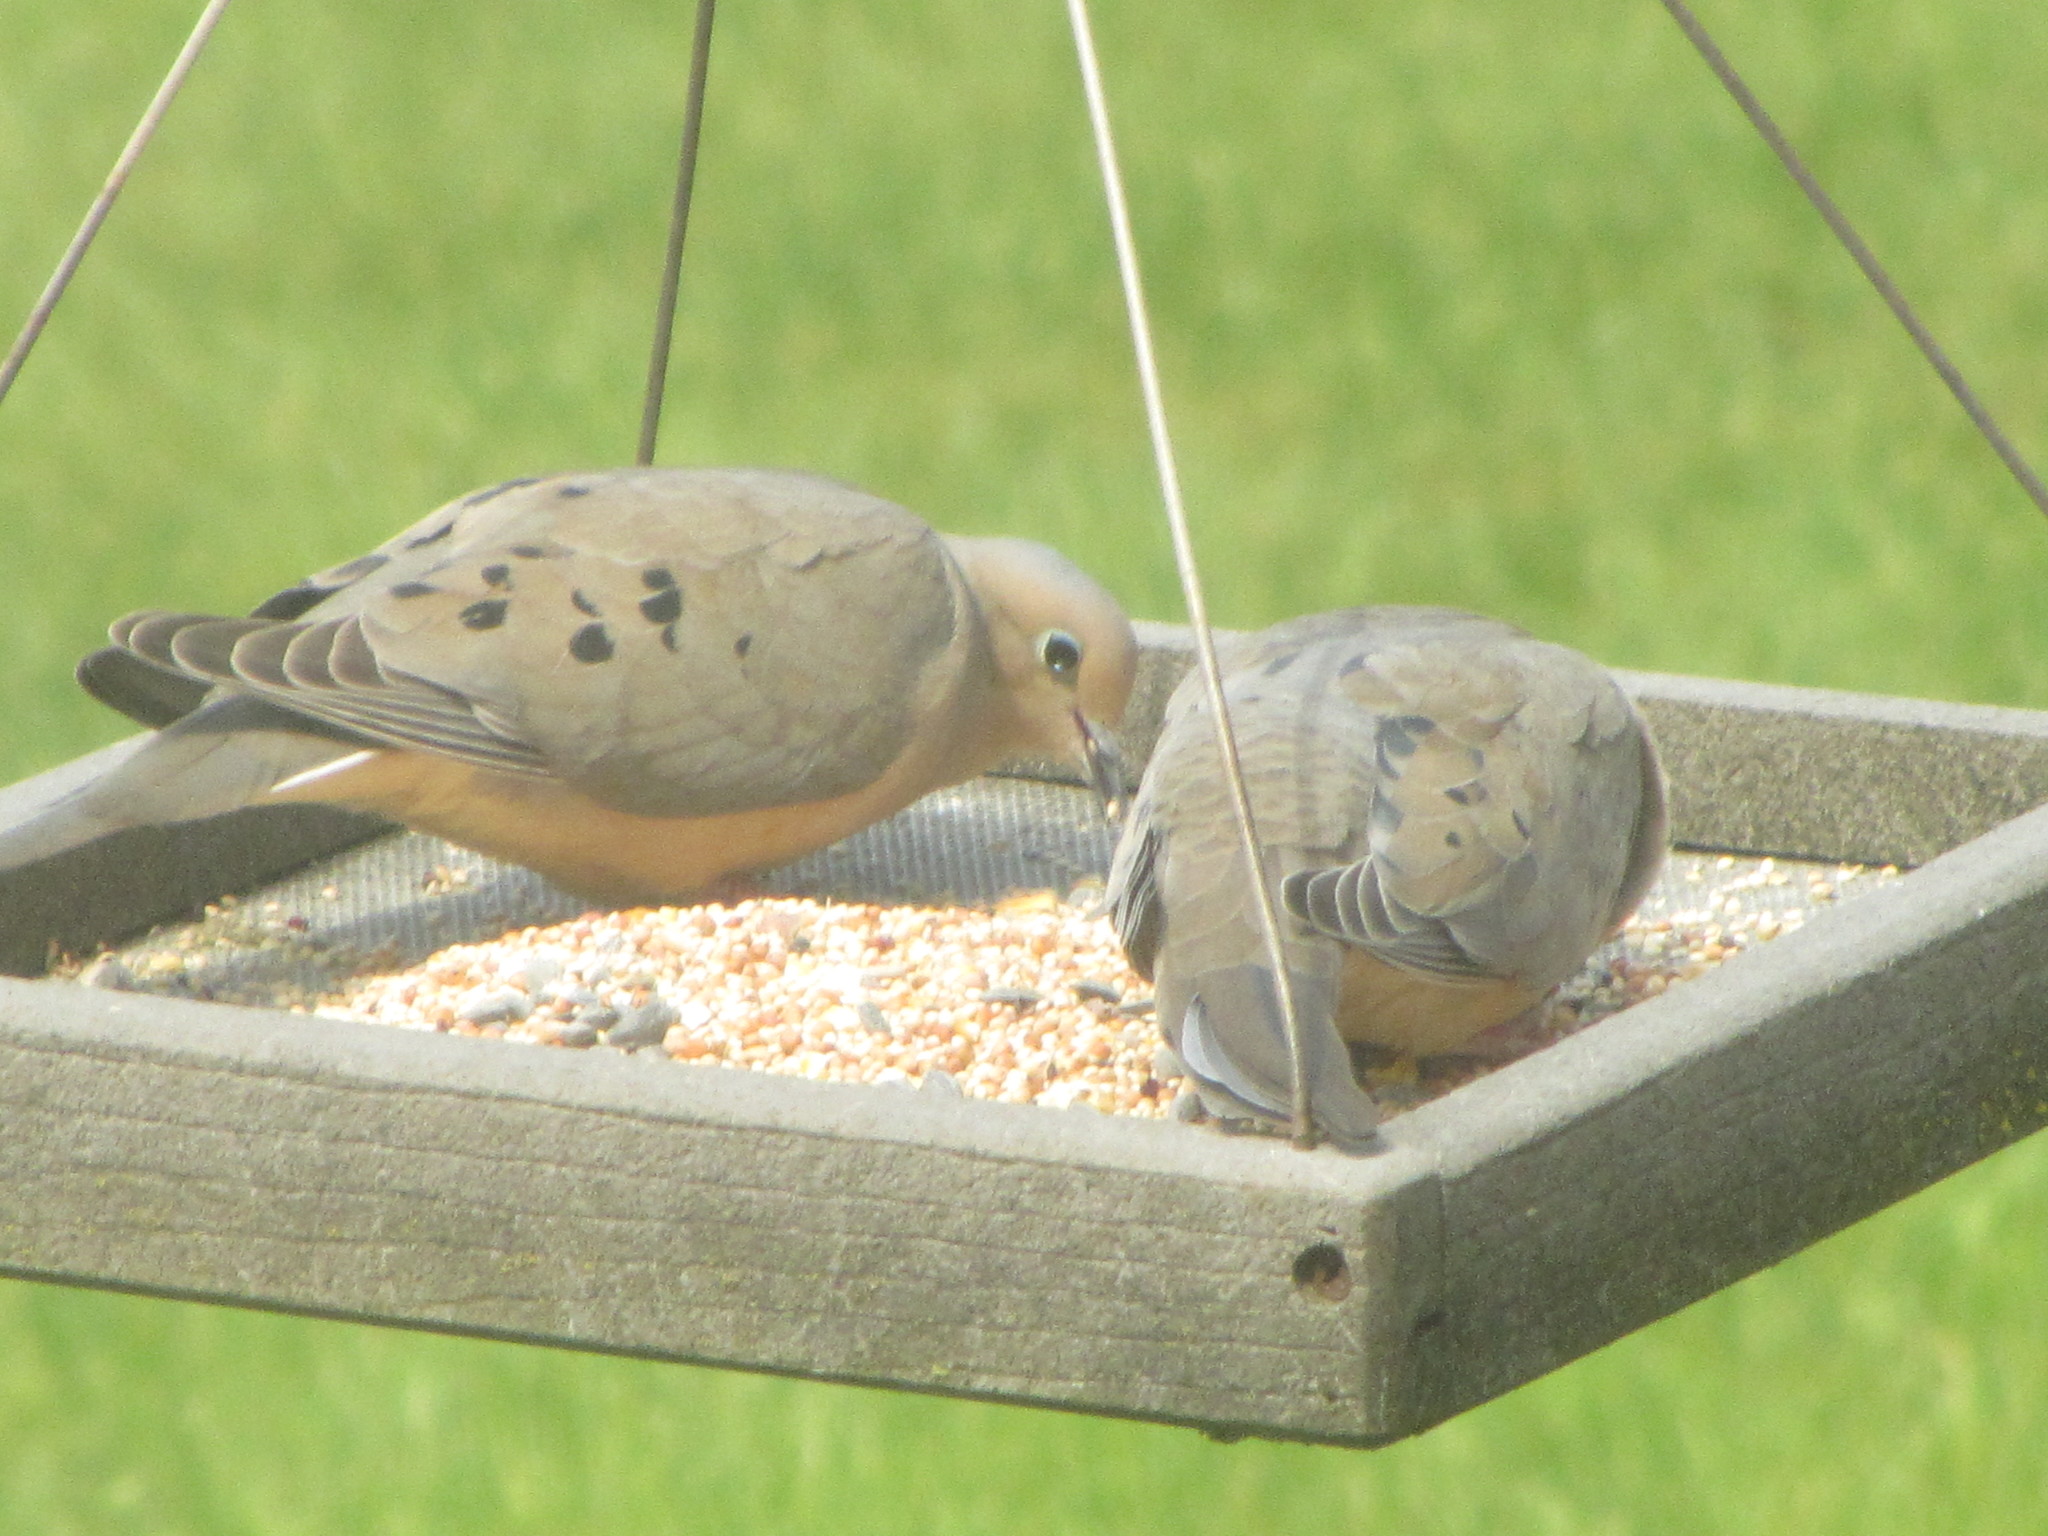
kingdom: Animalia
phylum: Chordata
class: Aves
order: Columbiformes
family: Columbidae
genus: Zenaida
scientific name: Zenaida macroura
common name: Mourning dove
